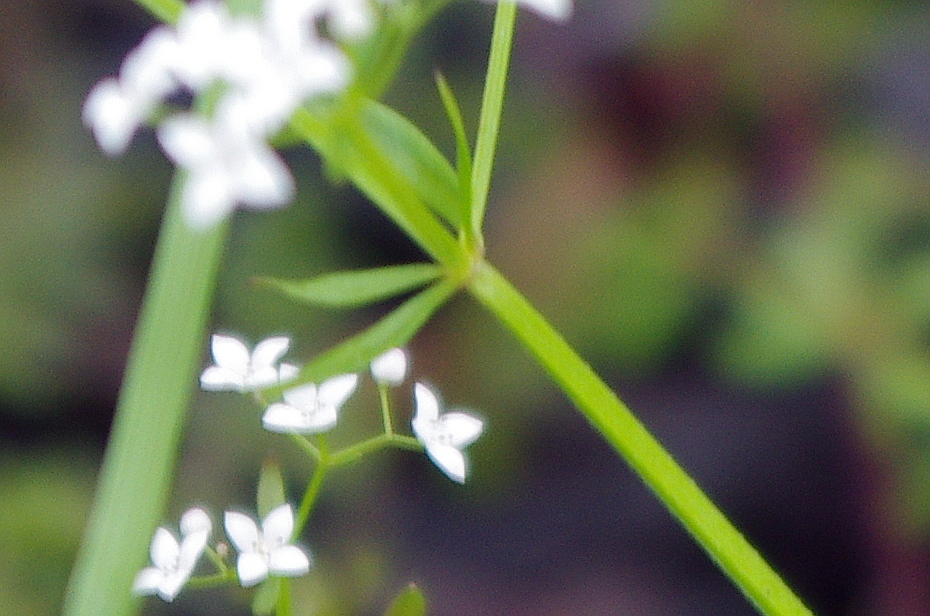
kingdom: Plantae
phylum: Tracheophyta
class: Magnoliopsida
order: Gentianales
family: Rubiaceae
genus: Galium
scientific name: Galium palustre
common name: Common marsh-bedstraw
